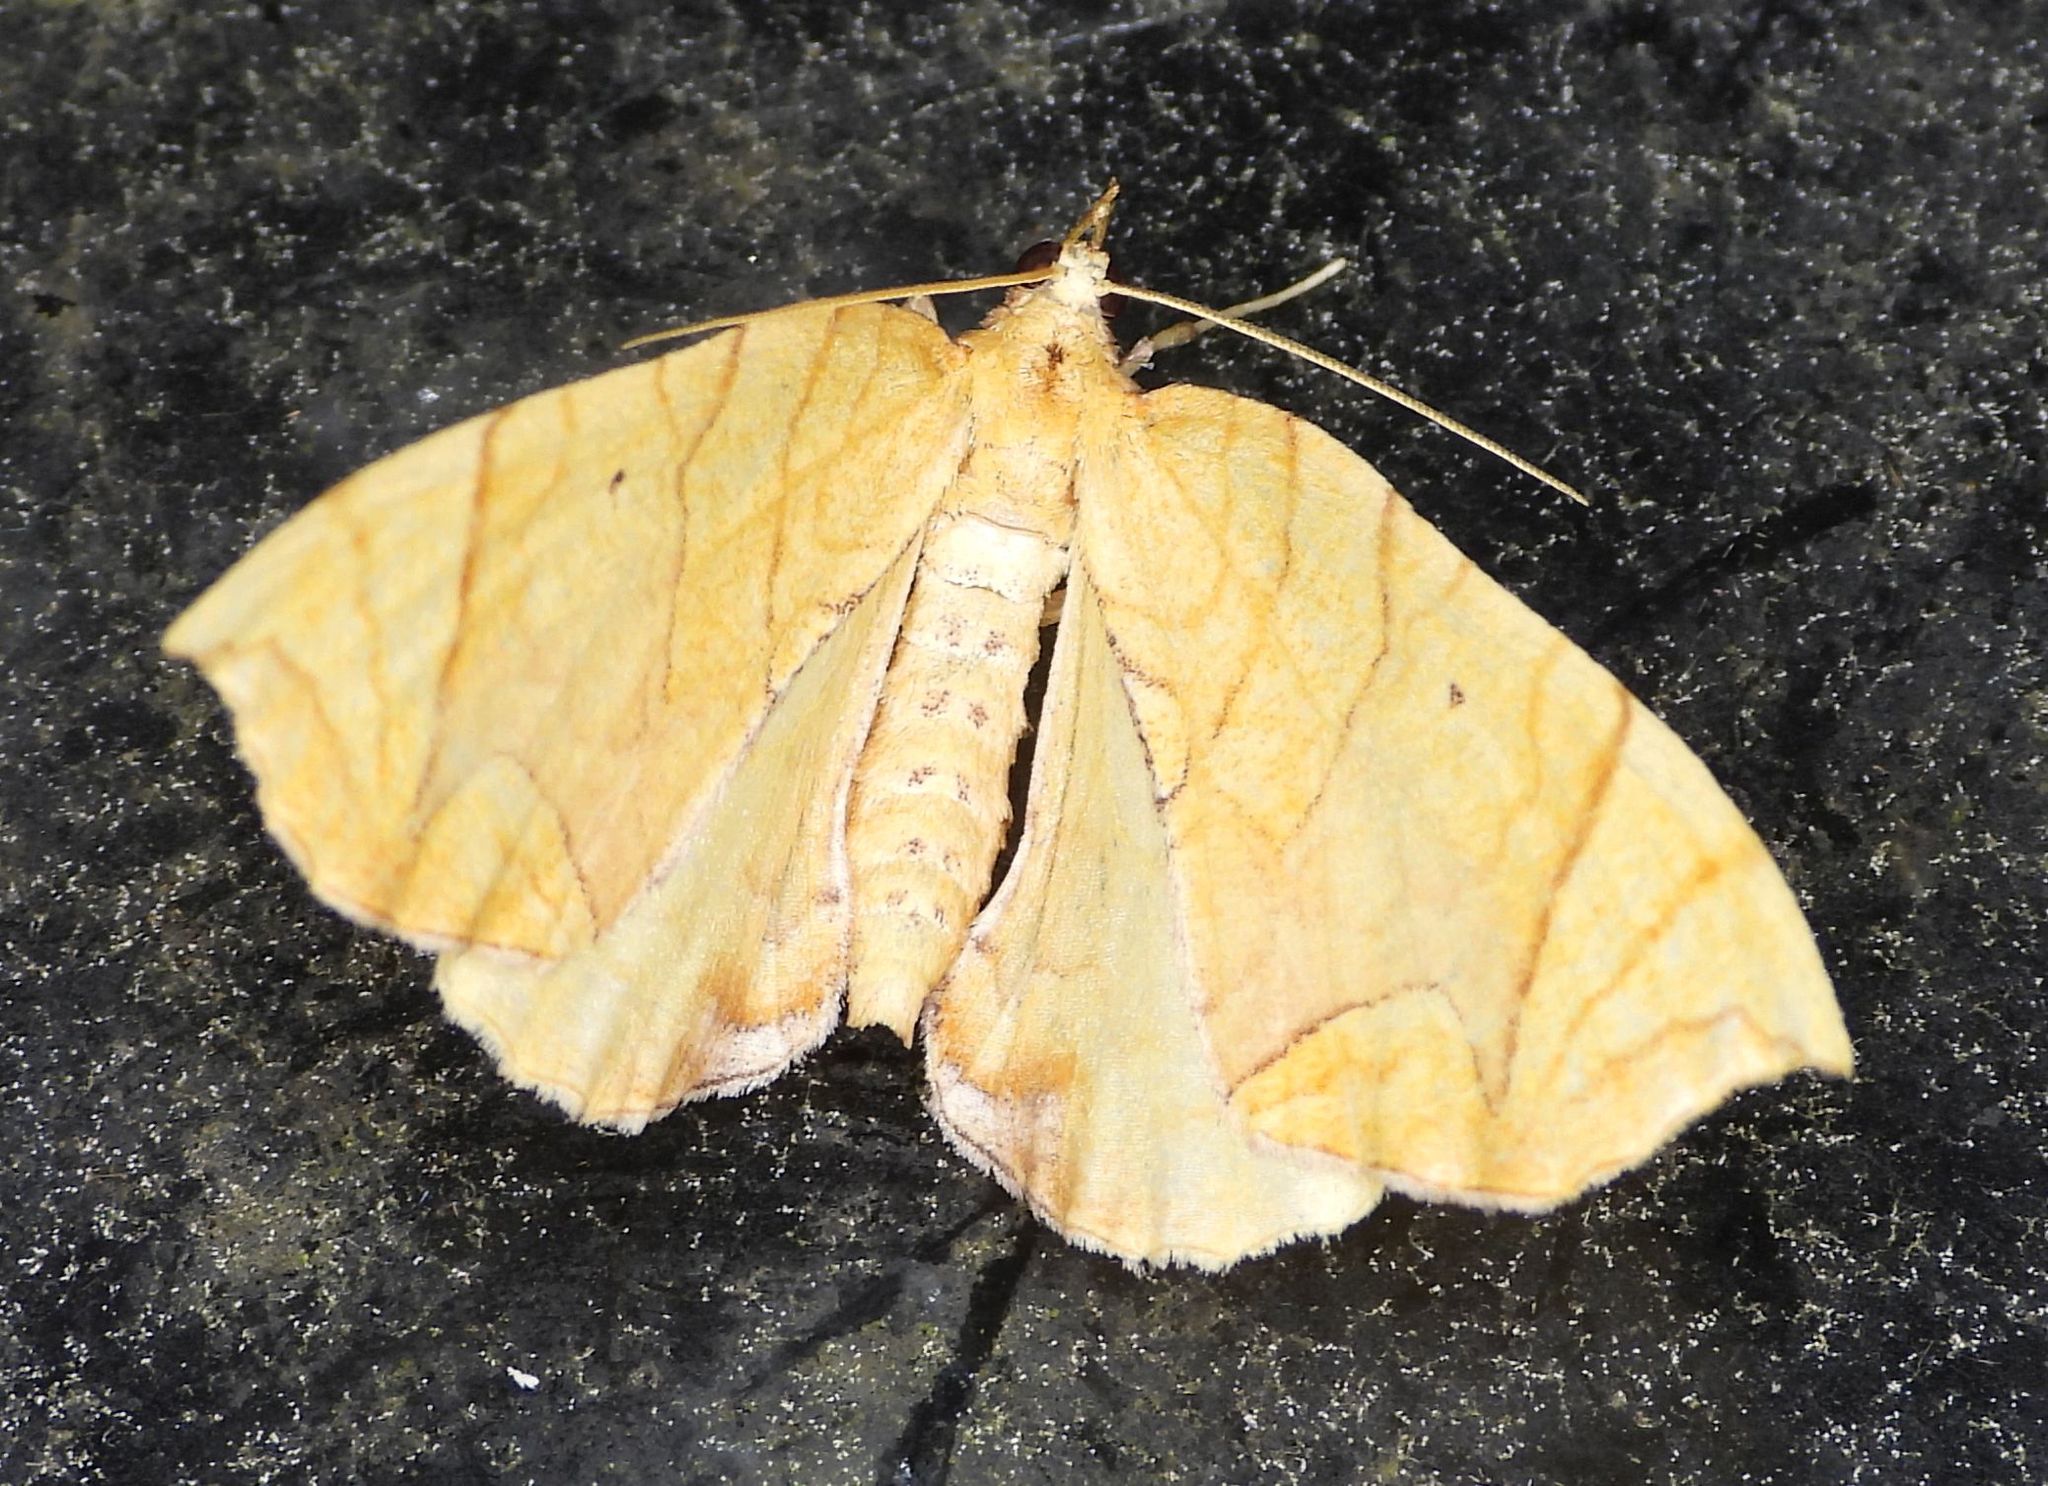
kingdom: Animalia
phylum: Arthropoda
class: Insecta
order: Lepidoptera
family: Geometridae
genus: Eulithis
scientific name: Eulithis
